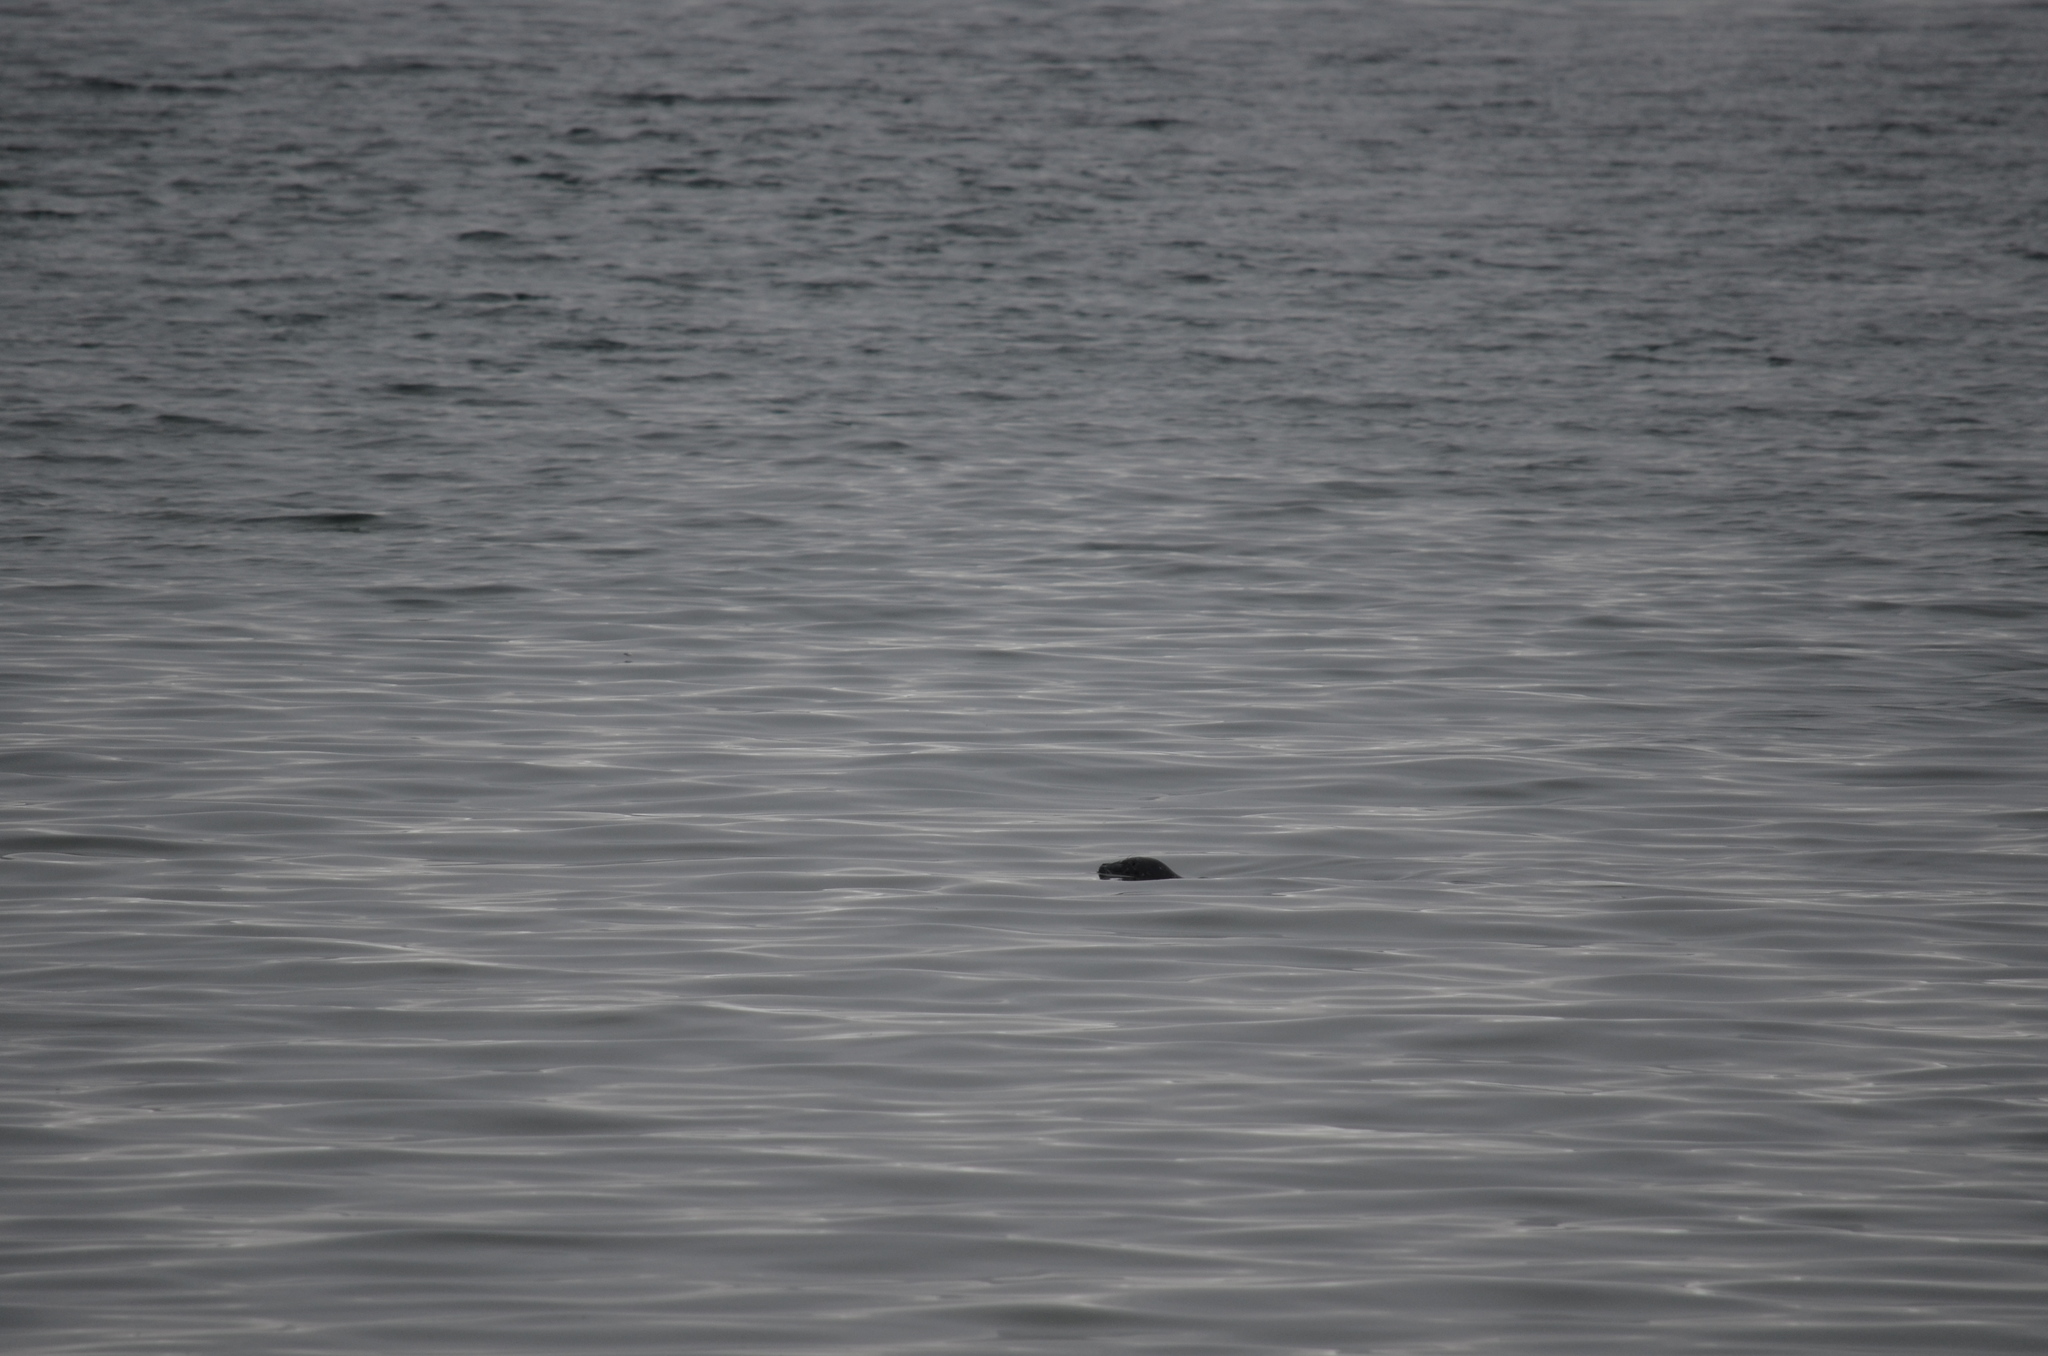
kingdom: Animalia
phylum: Chordata
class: Mammalia
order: Carnivora
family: Phocidae
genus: Phoca
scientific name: Phoca vitulina
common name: Harbor seal
